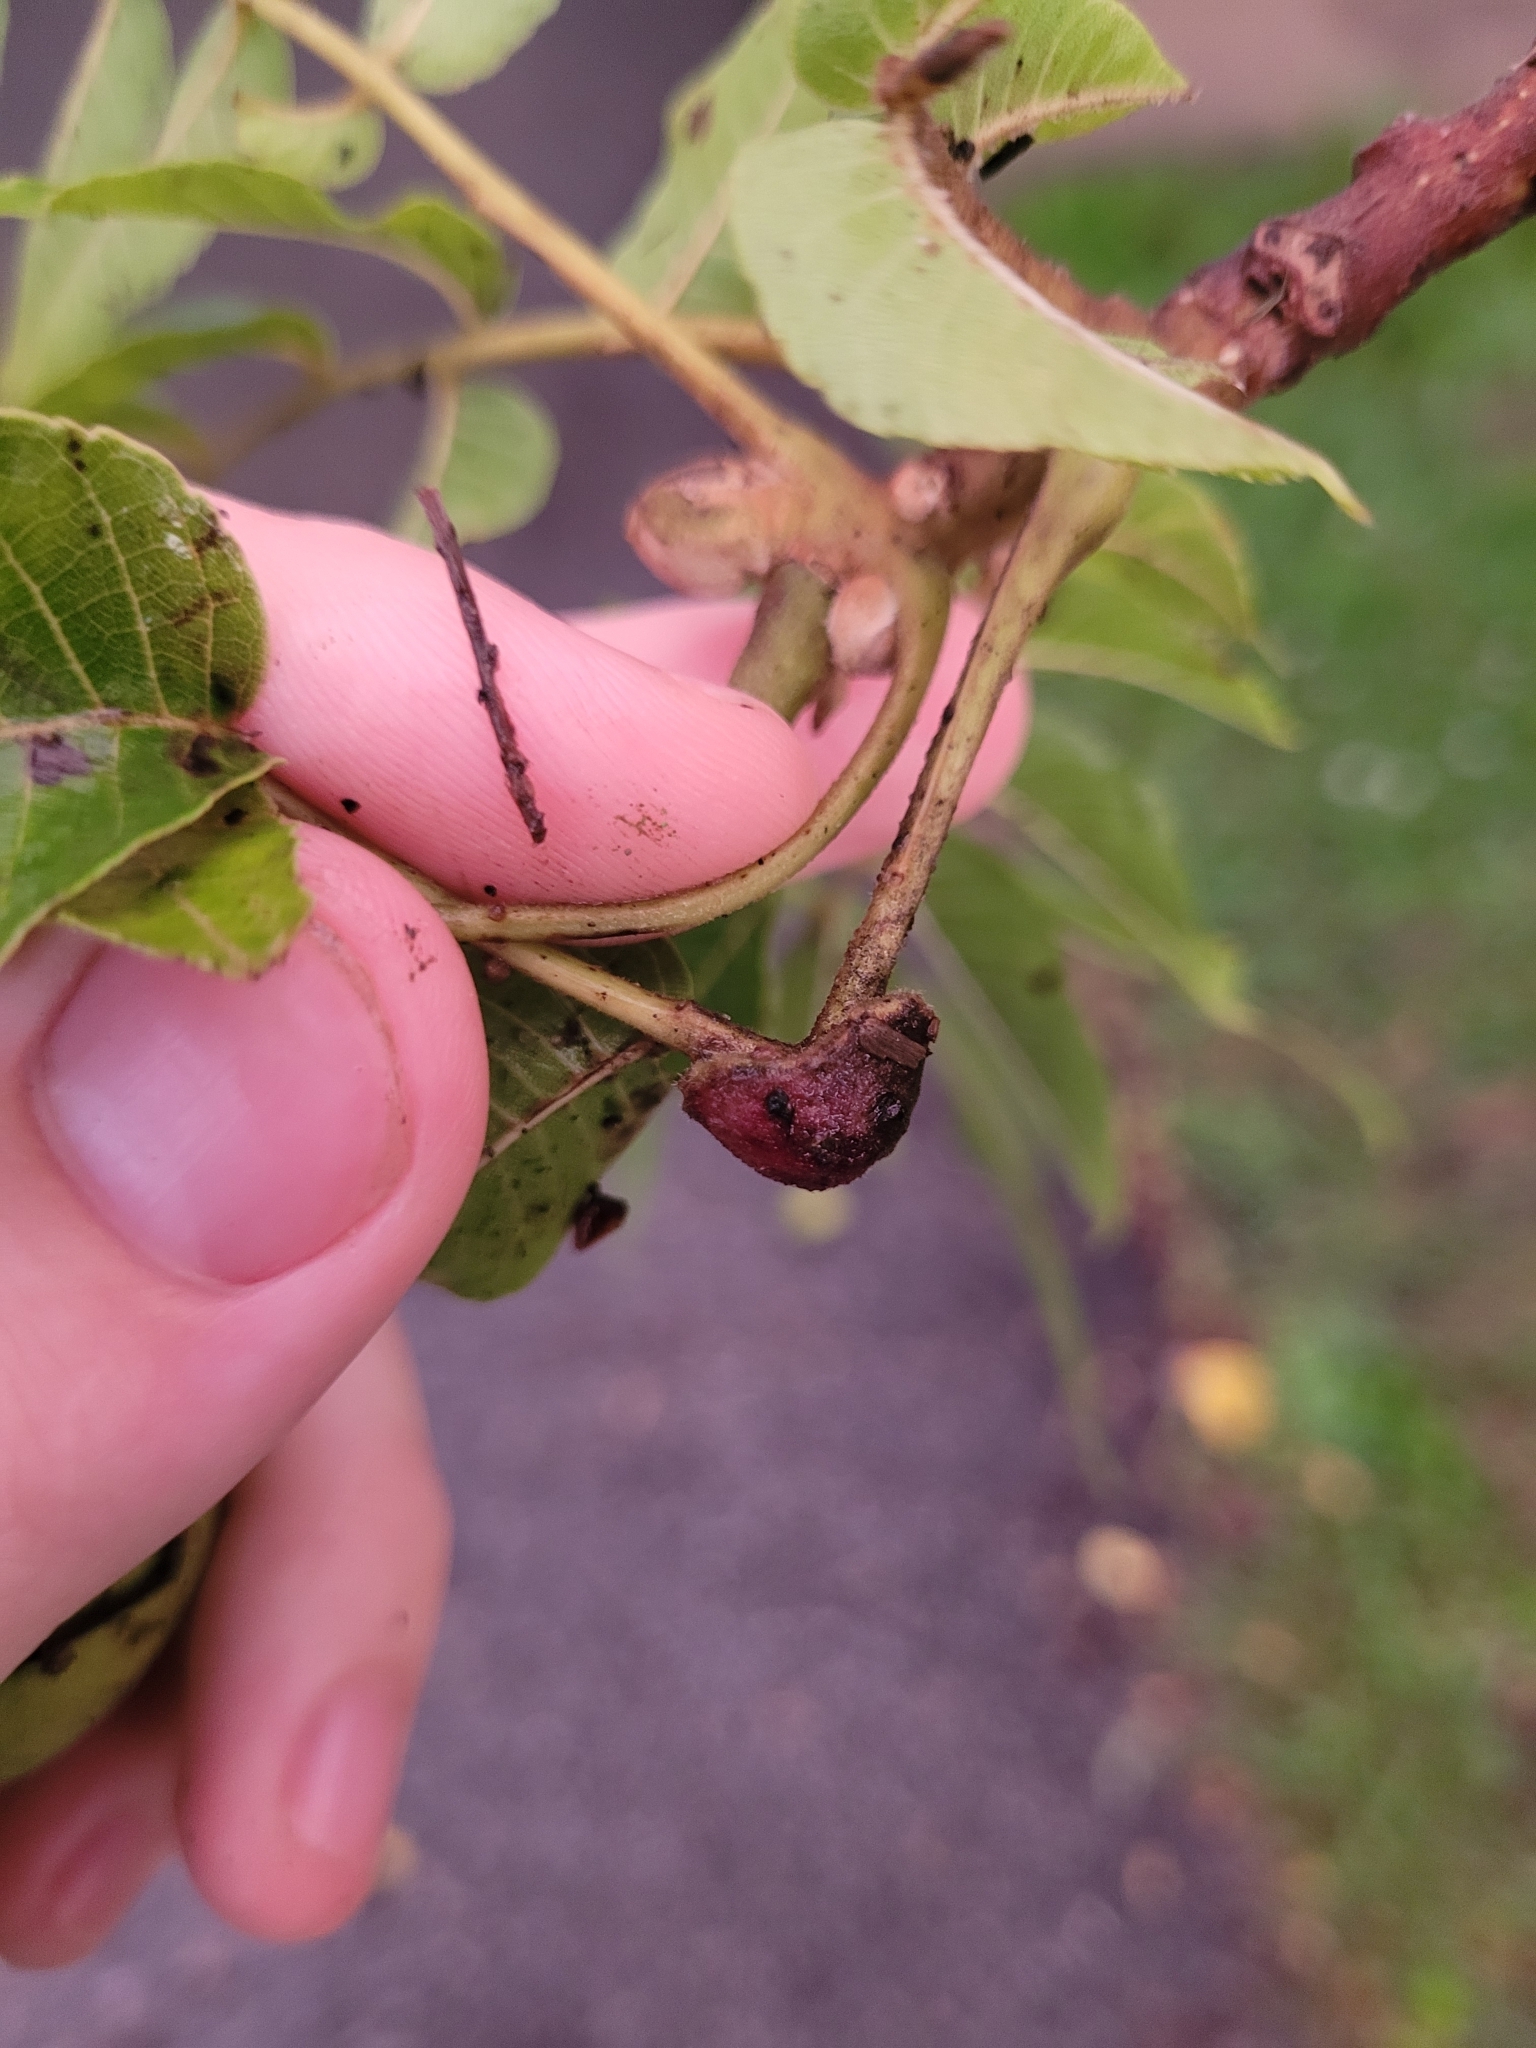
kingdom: Animalia
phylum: Arthropoda
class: Arachnida
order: Trombidiformes
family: Eriophyidae
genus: Aceria
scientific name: Aceria
